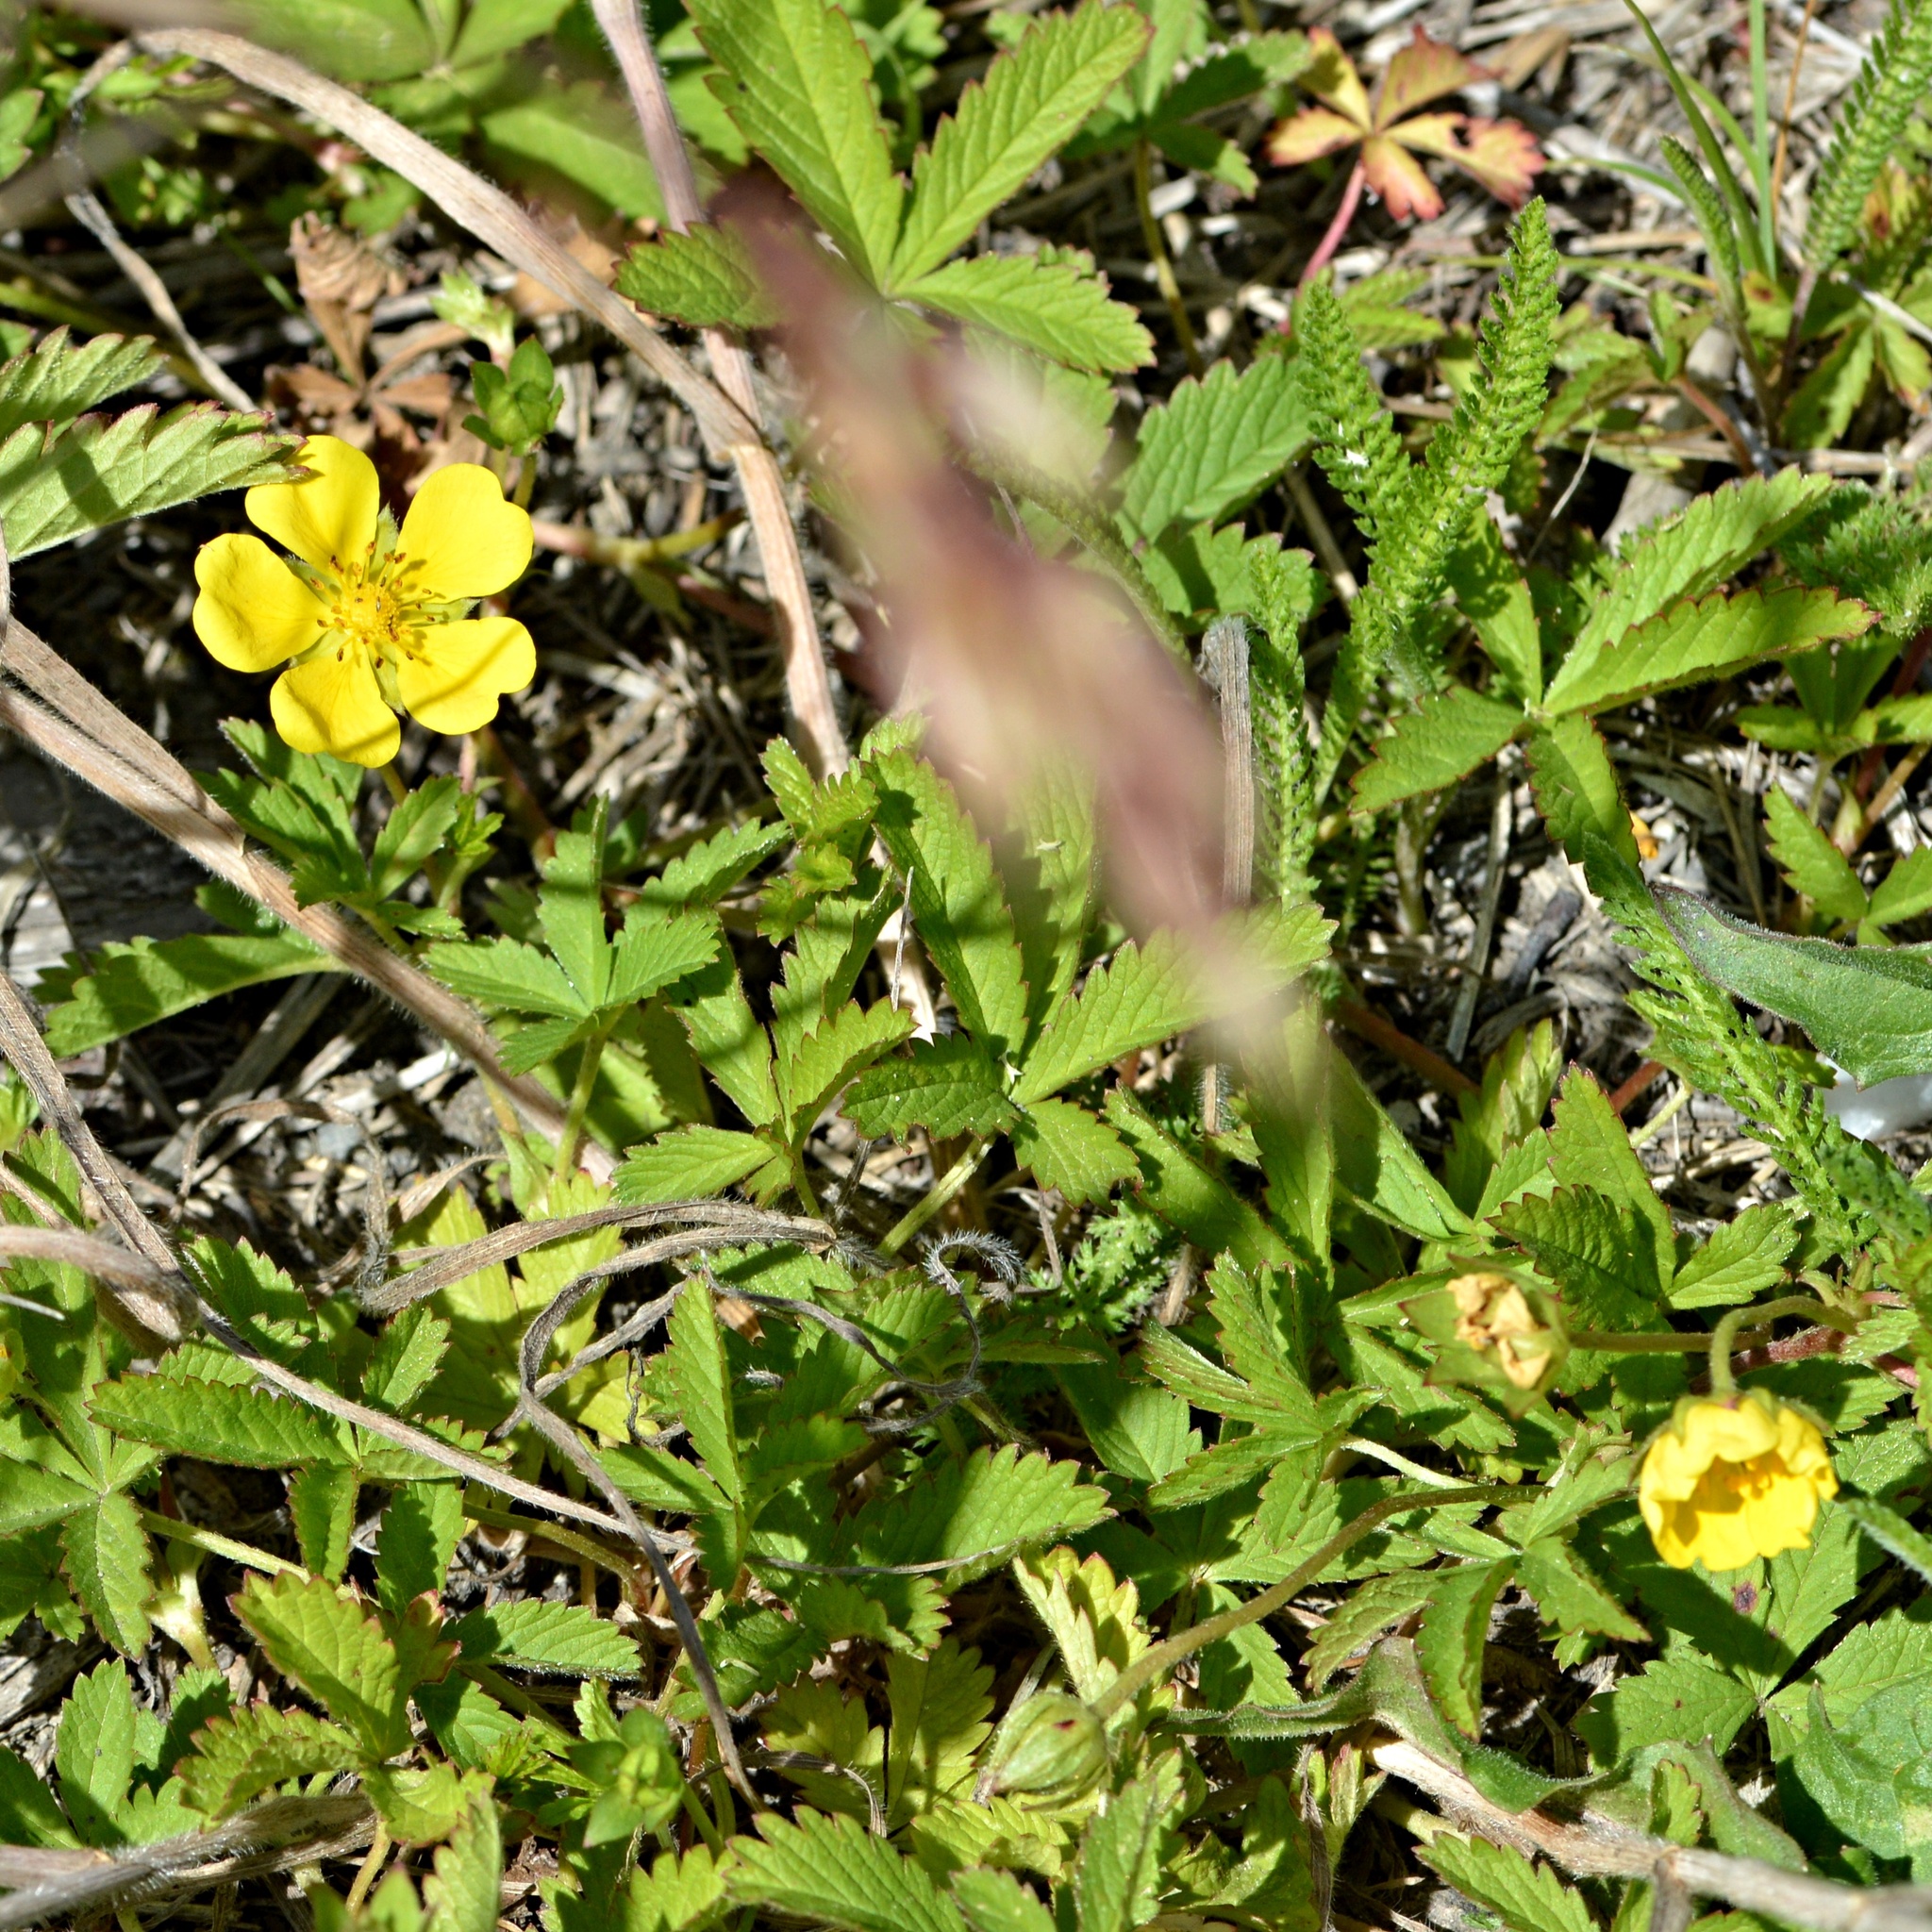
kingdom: Plantae
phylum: Tracheophyta
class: Magnoliopsida
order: Rosales
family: Rosaceae
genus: Potentilla
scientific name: Potentilla reptans
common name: Creeping cinquefoil
